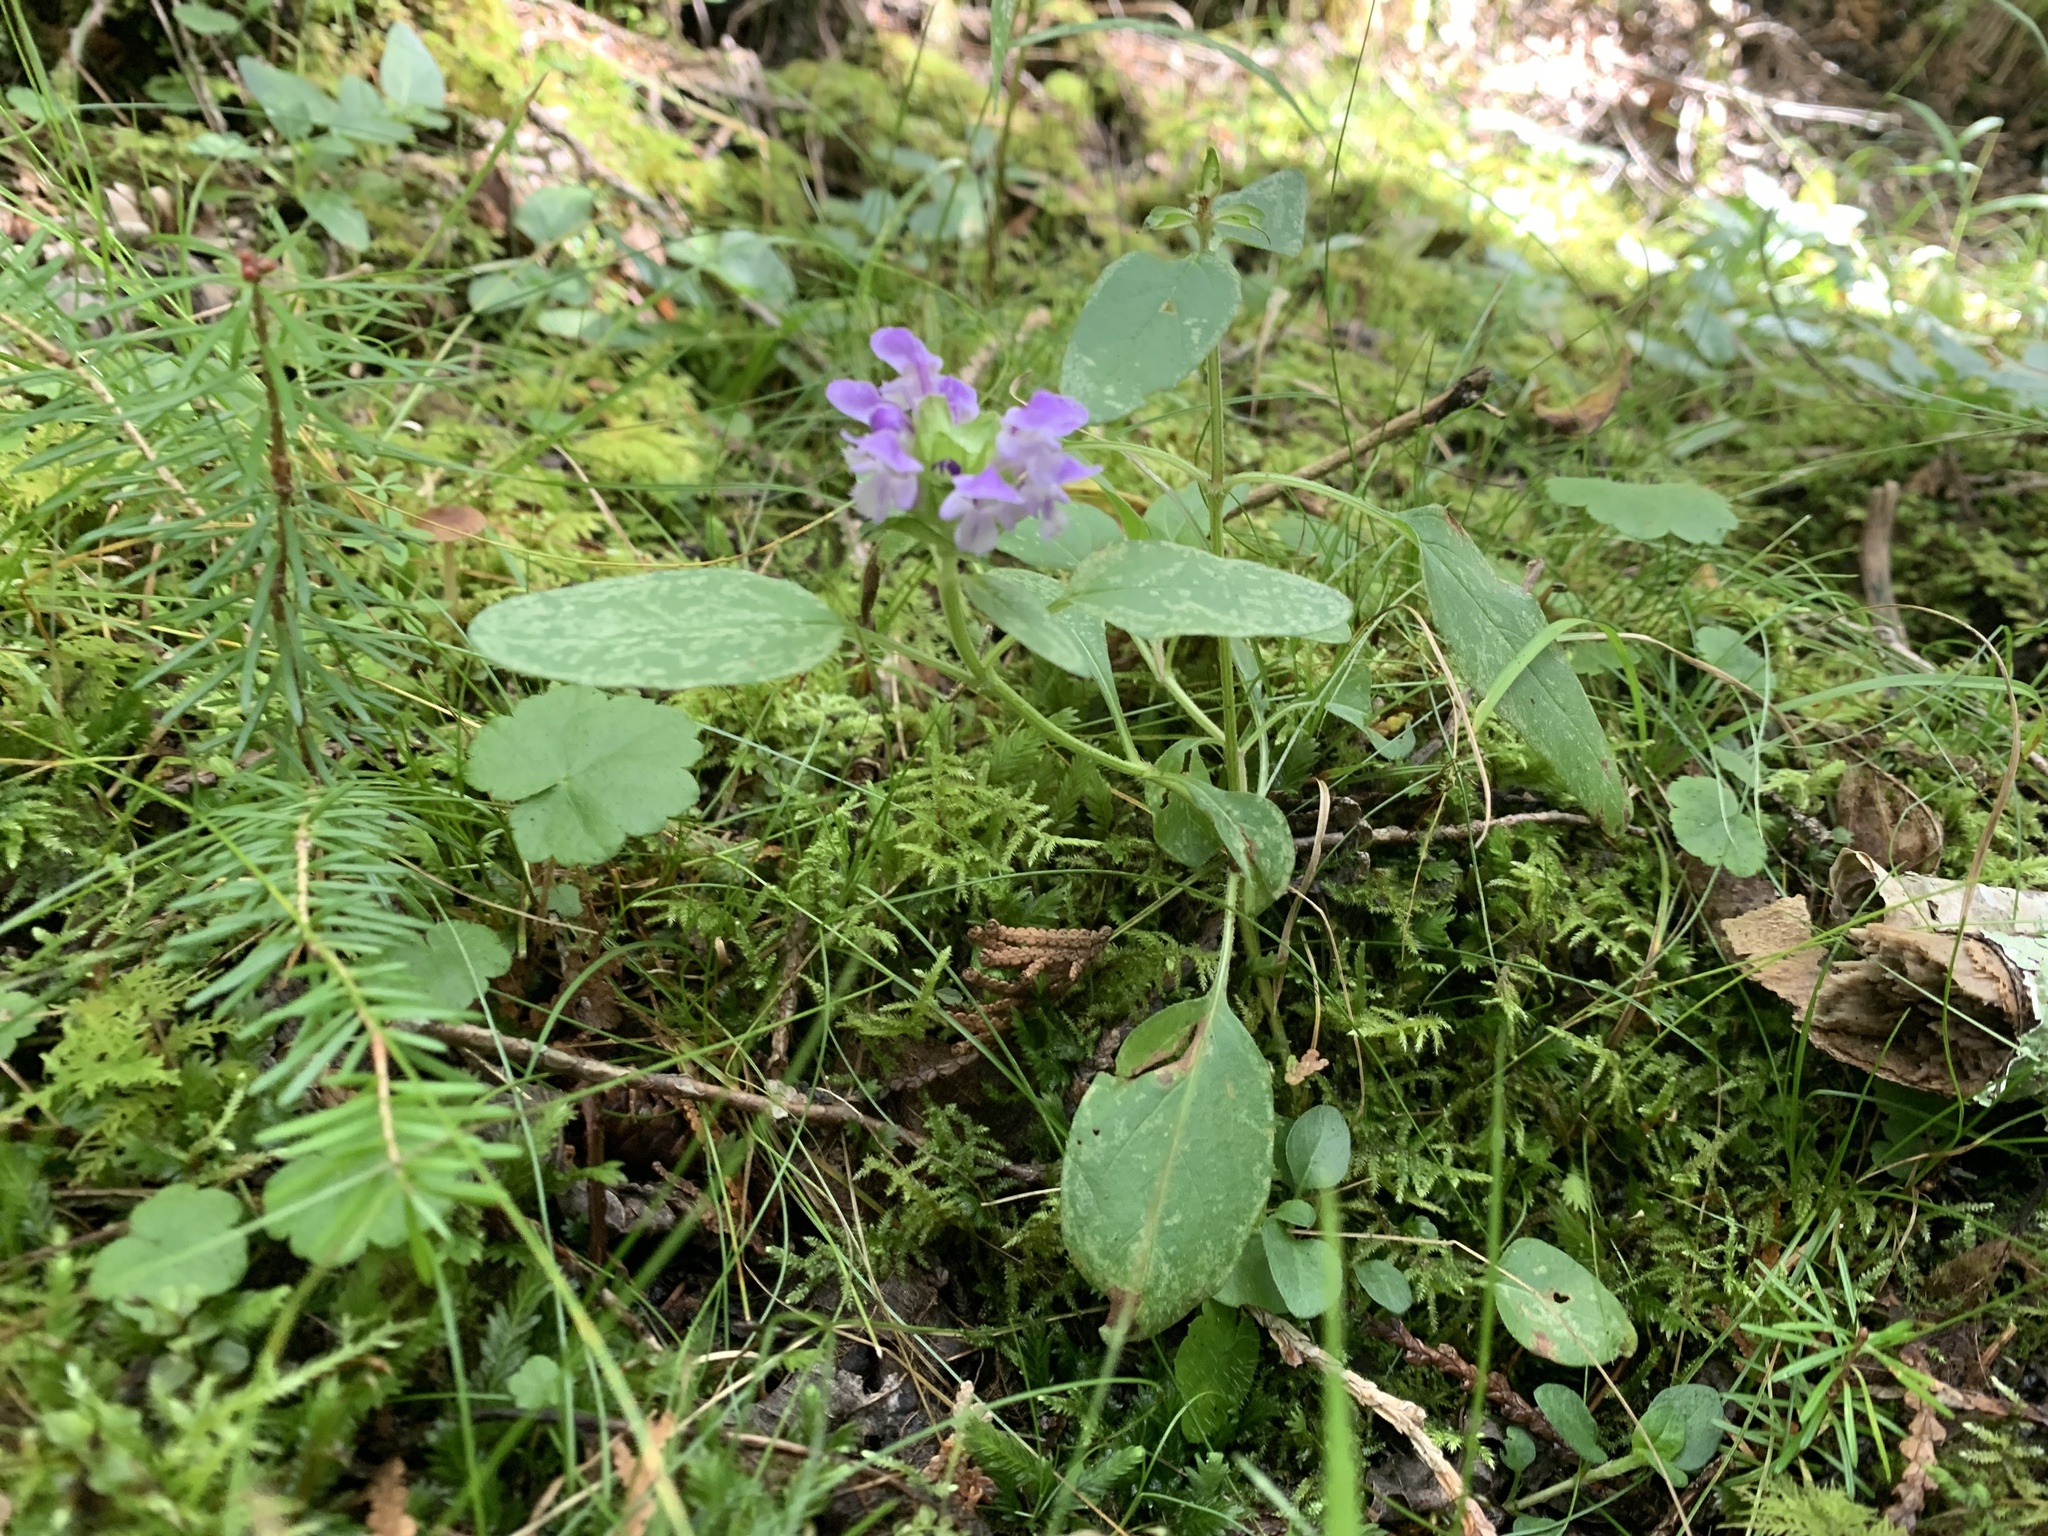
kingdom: Plantae
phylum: Tracheophyta
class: Magnoliopsida
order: Lamiales
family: Lamiaceae
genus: Prunella
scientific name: Prunella vulgaris
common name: Heal-all
